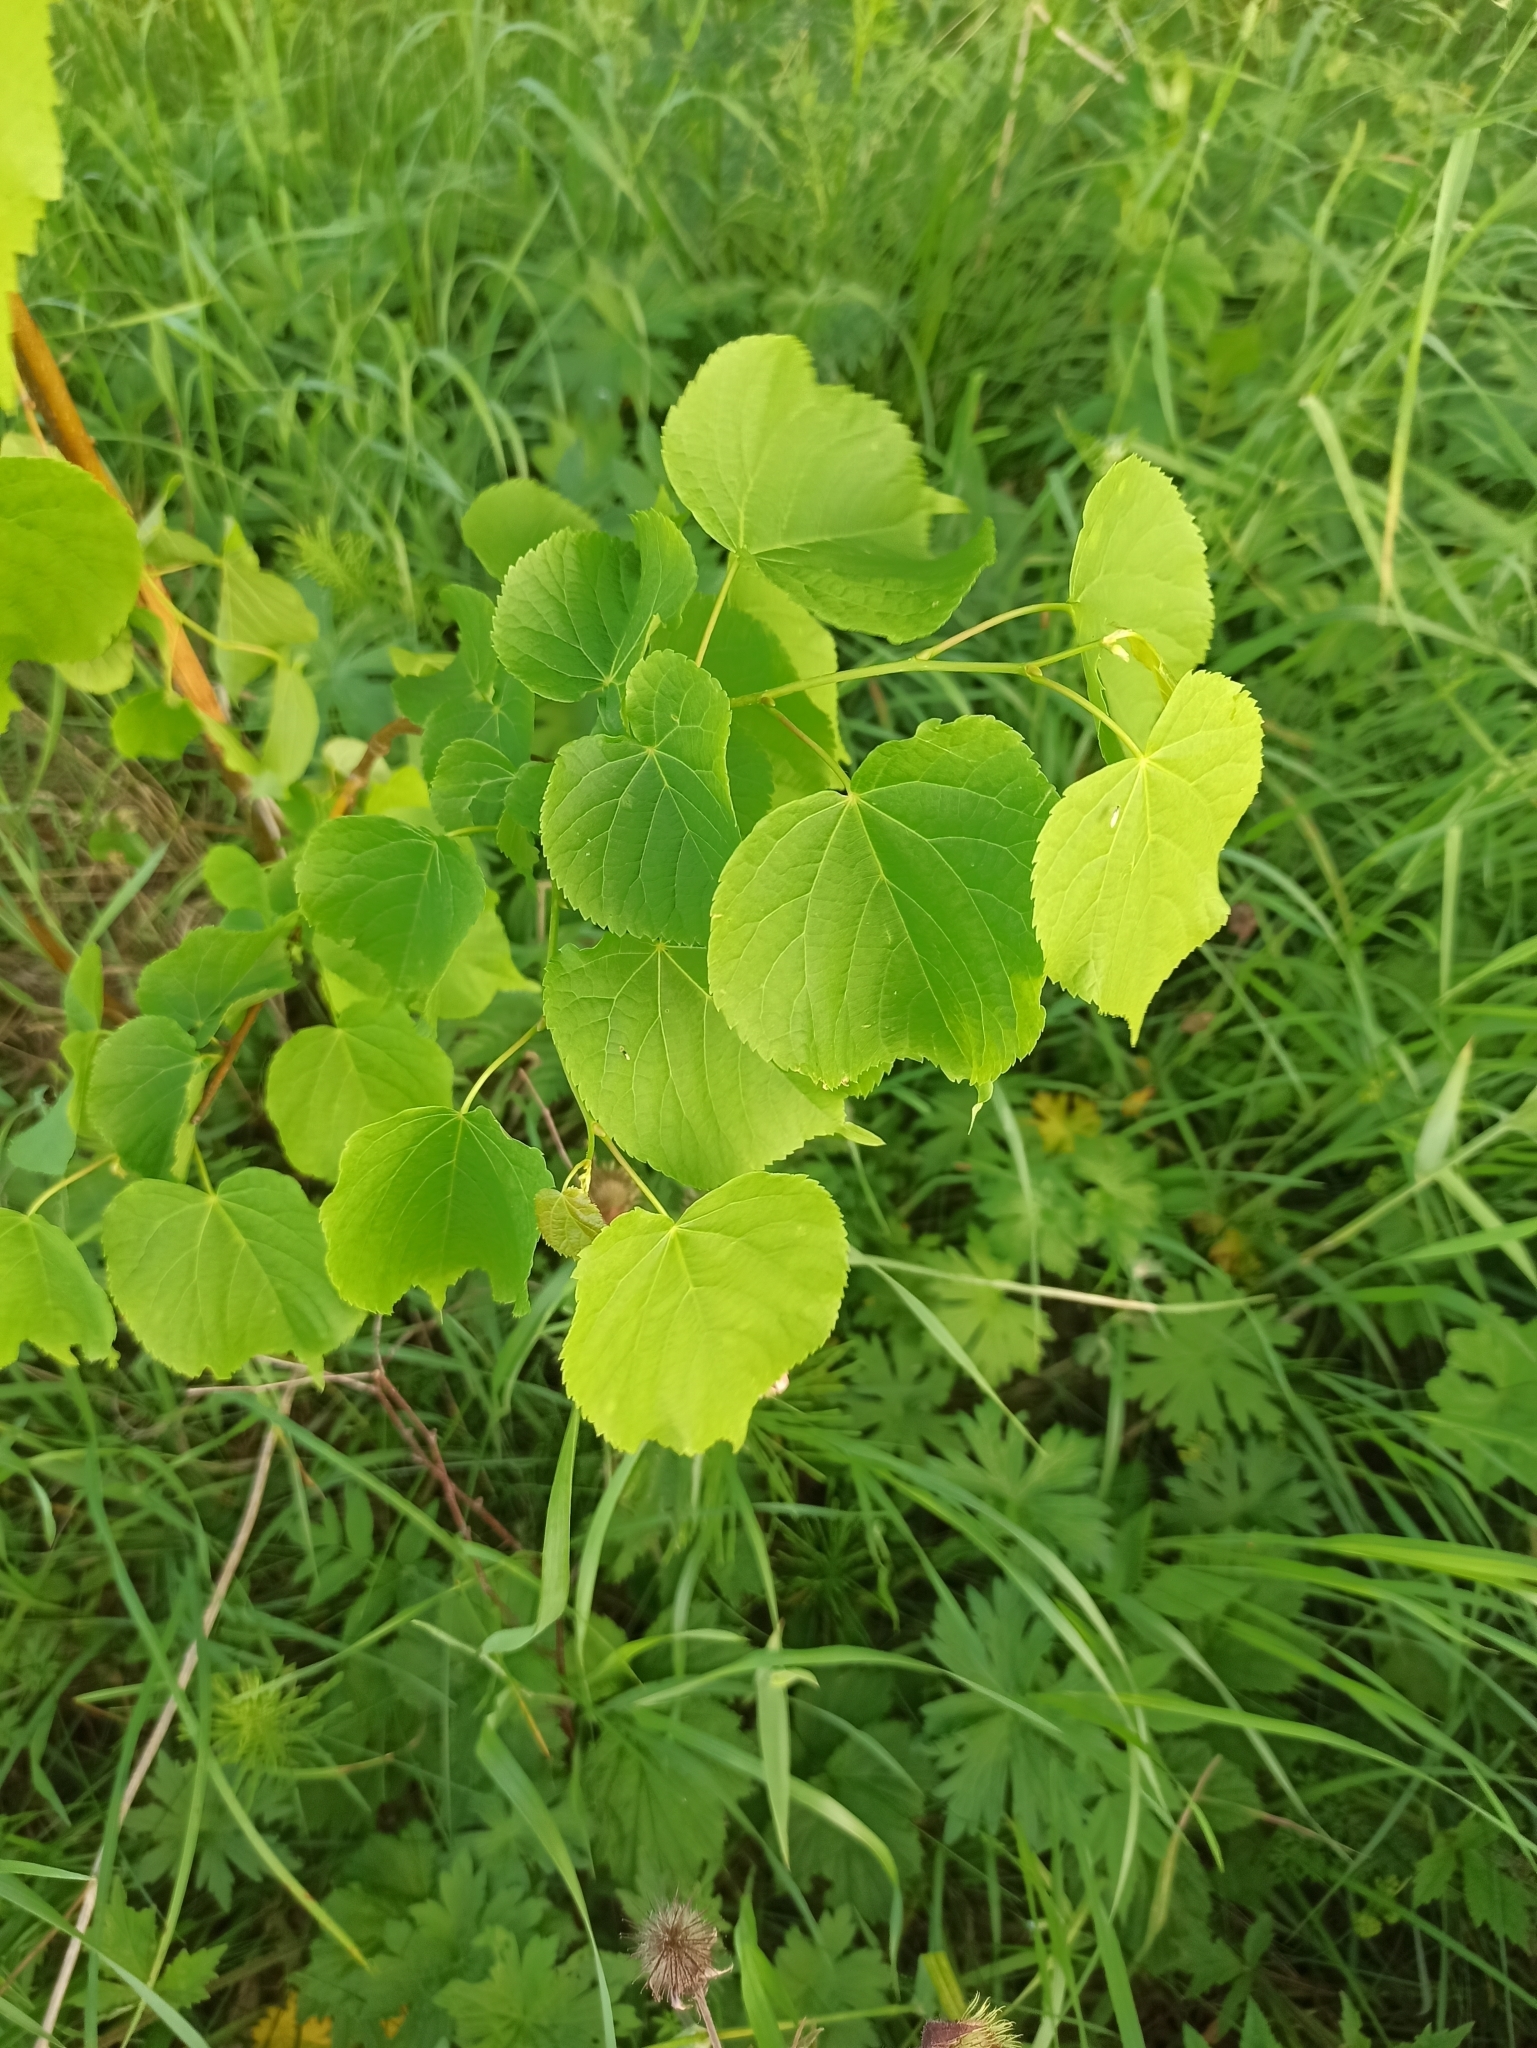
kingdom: Plantae
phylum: Tracheophyta
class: Magnoliopsida
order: Malvales
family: Malvaceae
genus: Tilia
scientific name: Tilia cordata
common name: Small-leaved lime
